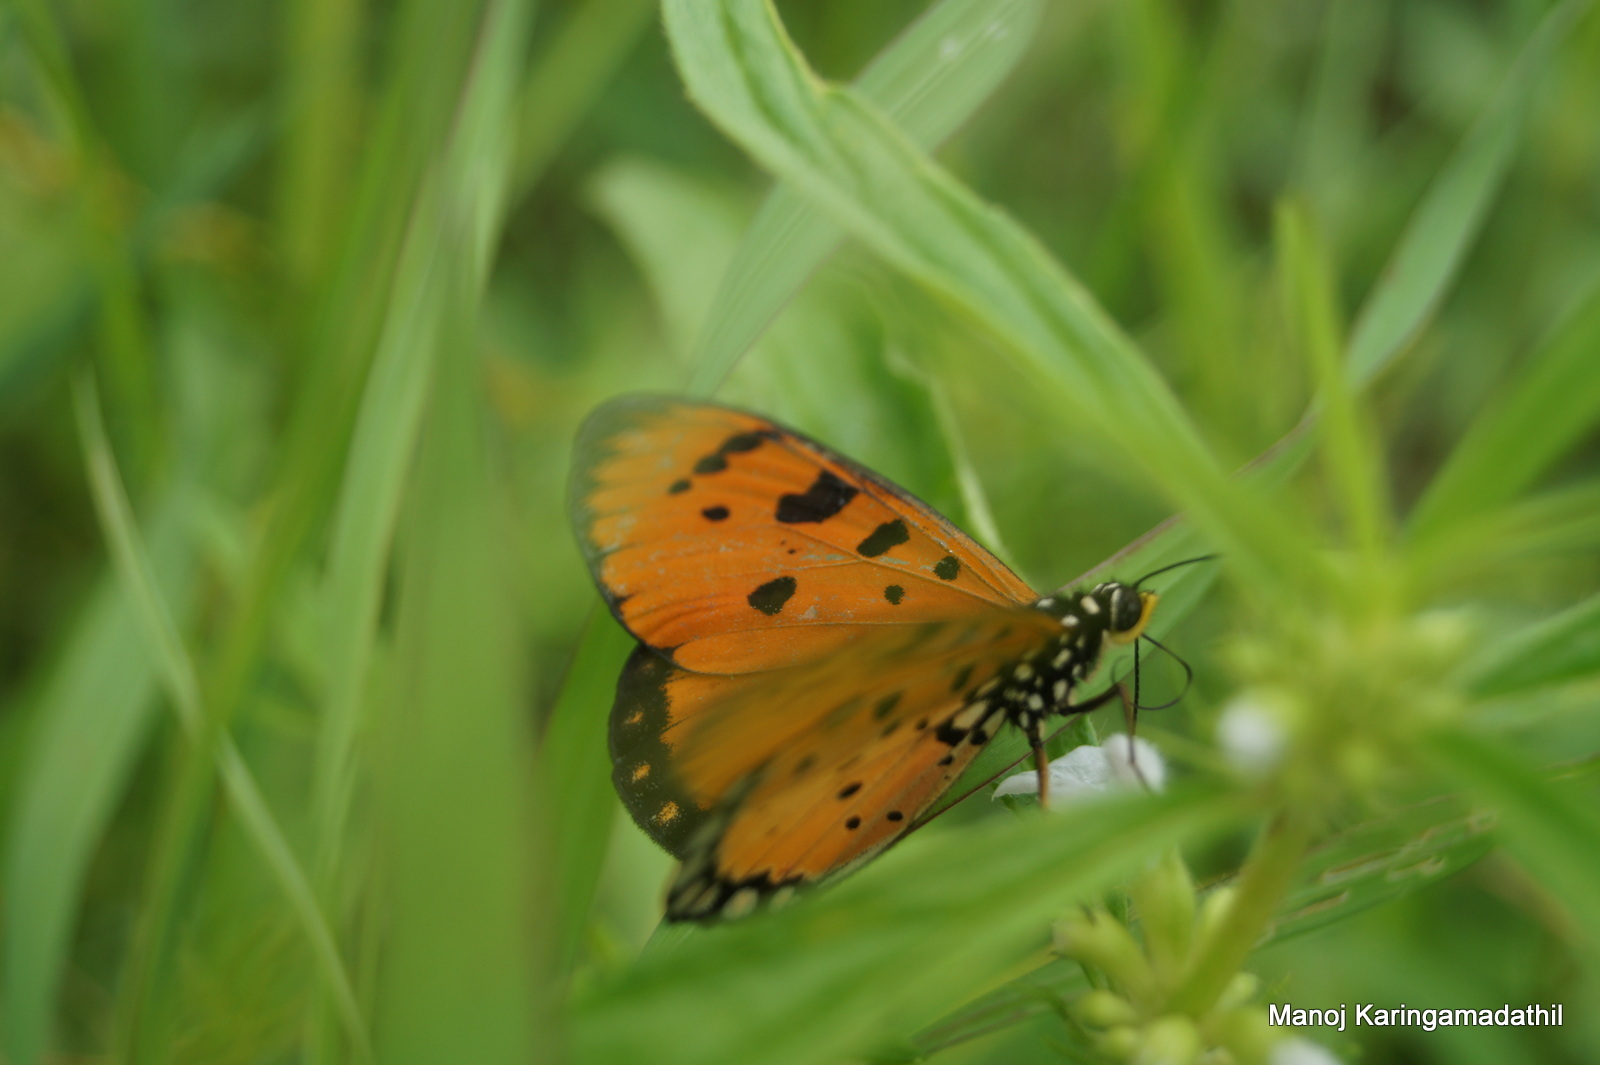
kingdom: Animalia
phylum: Arthropoda
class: Insecta
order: Lepidoptera
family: Nymphalidae
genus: Acraea
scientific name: Acraea terpsicore
